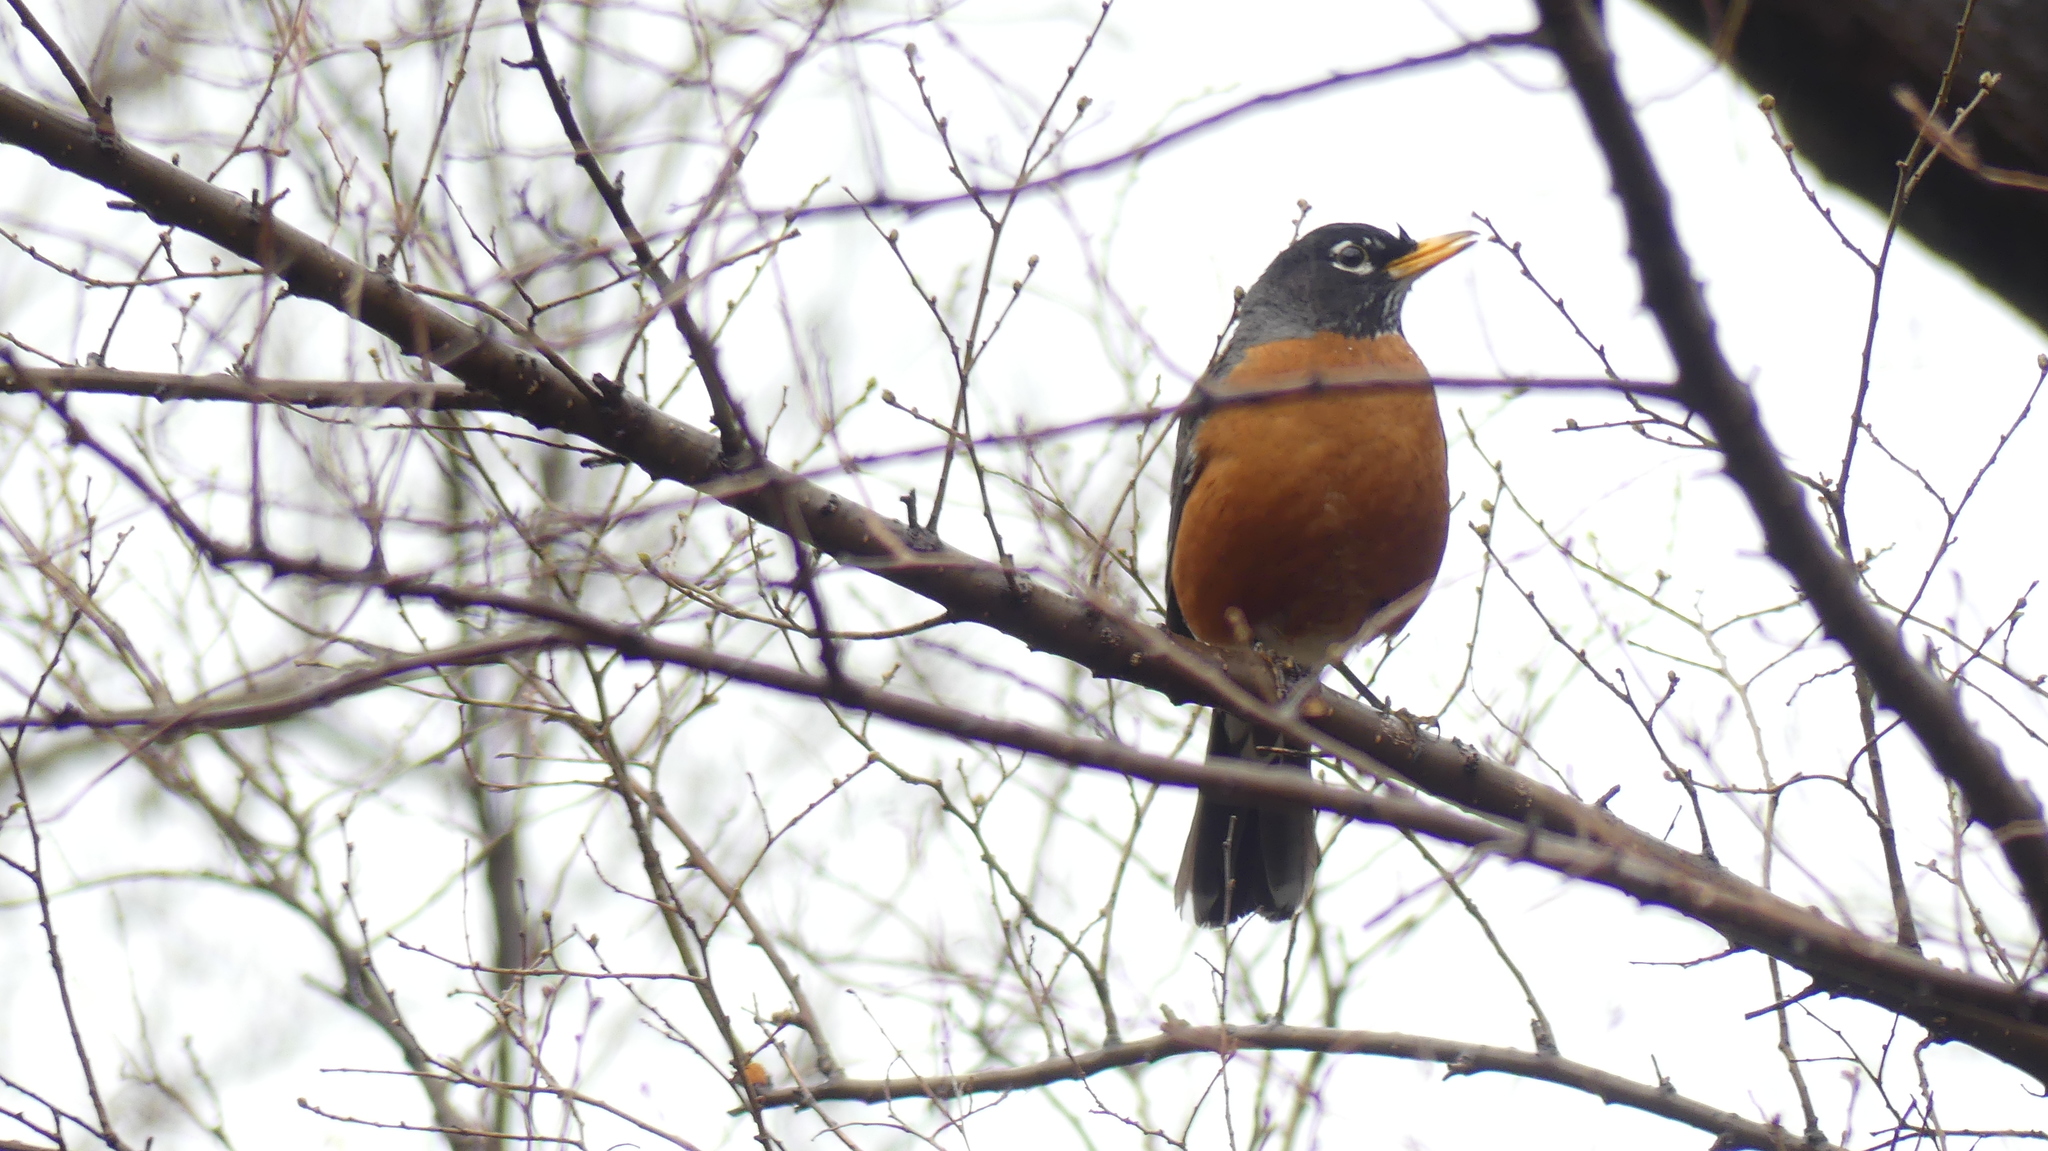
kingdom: Animalia
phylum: Chordata
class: Aves
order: Passeriformes
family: Turdidae
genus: Turdus
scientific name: Turdus migratorius
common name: American robin
